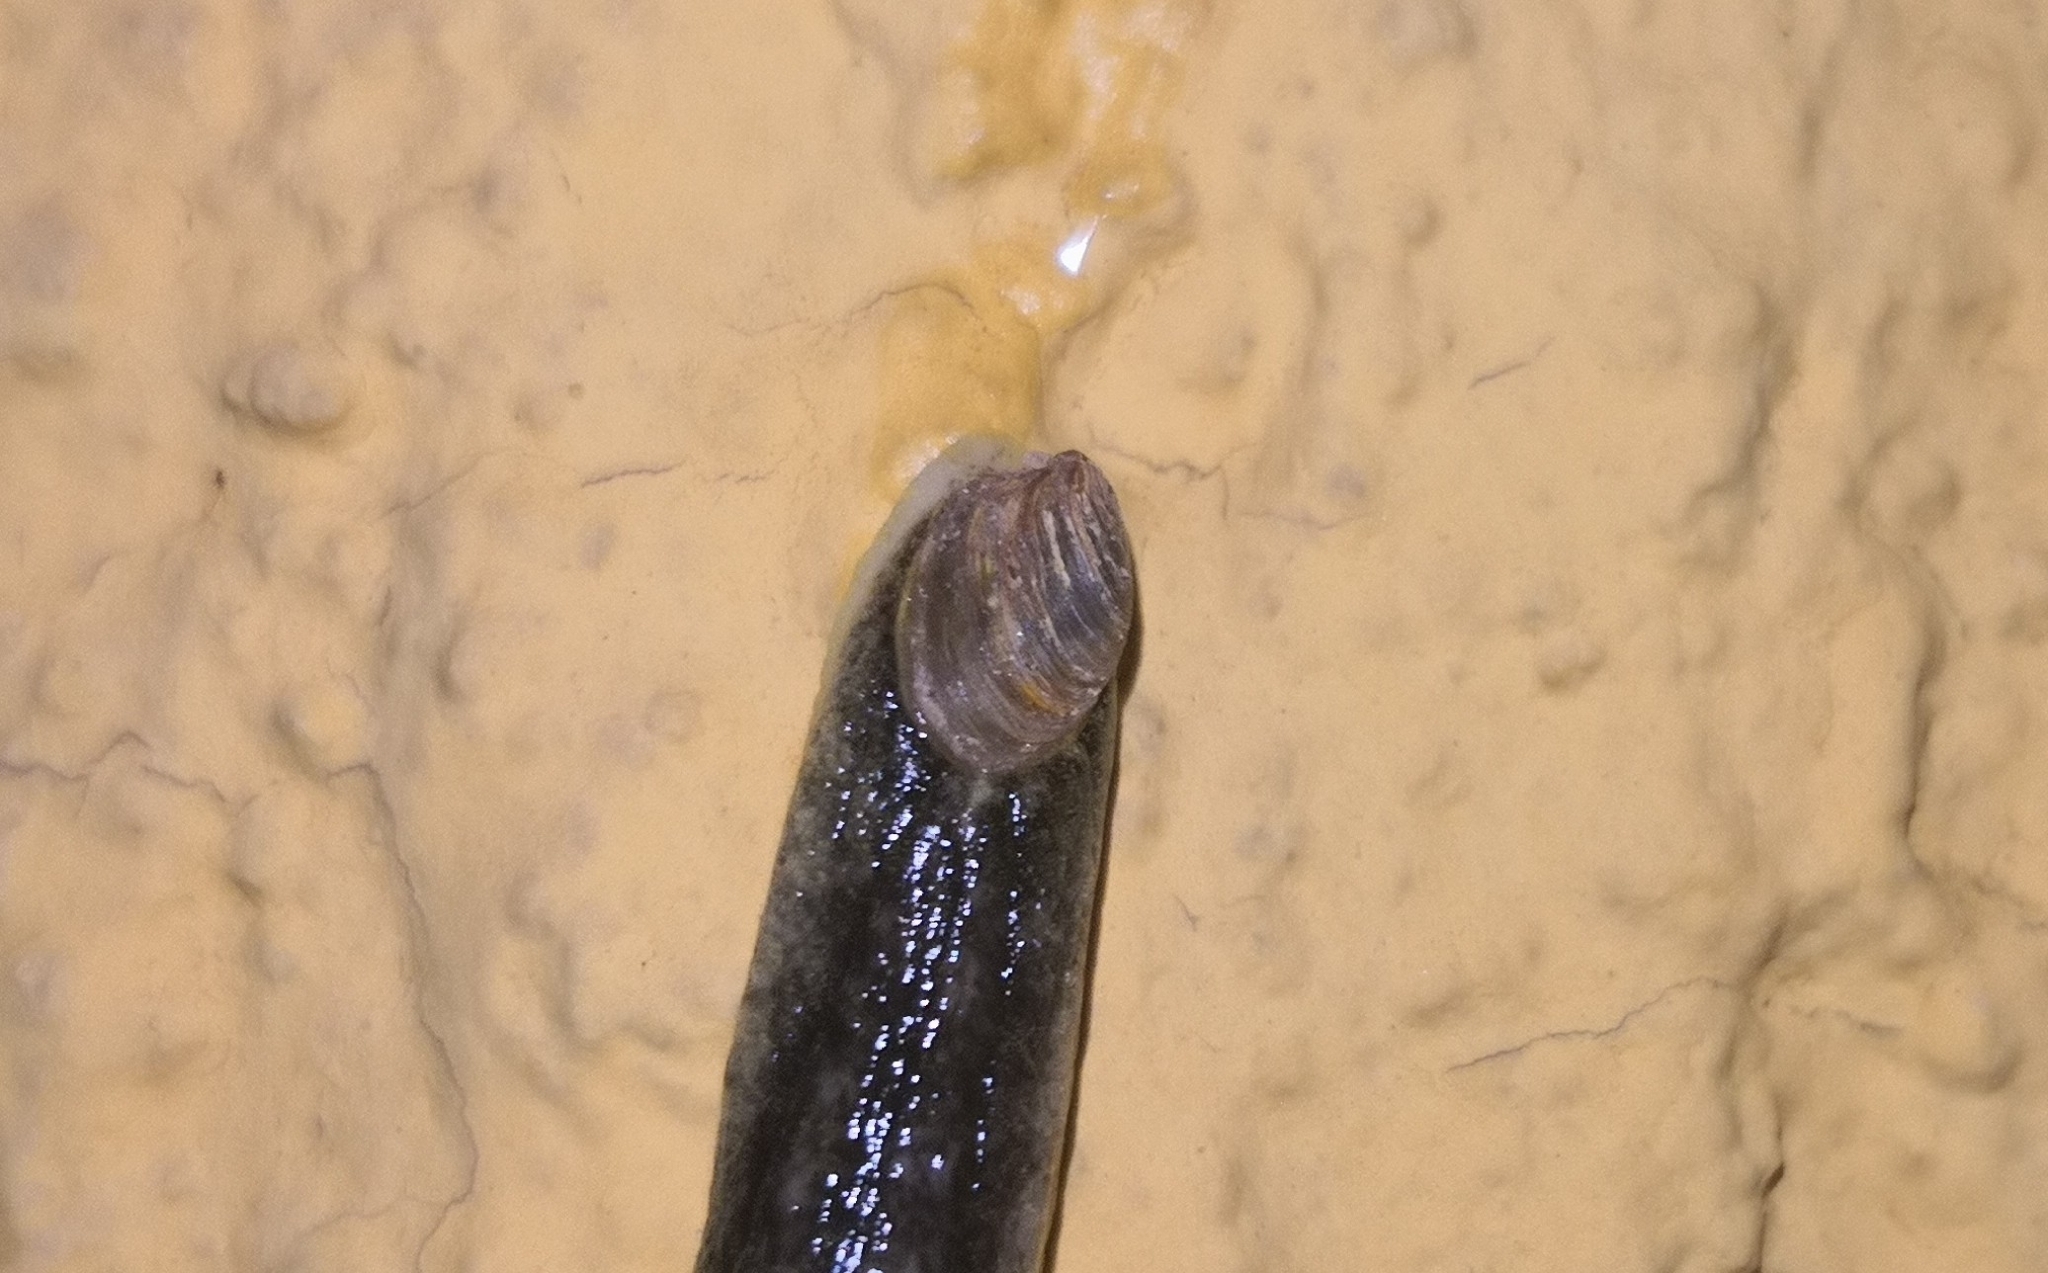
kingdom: Animalia
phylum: Mollusca
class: Gastropoda
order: Stylommatophora
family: Testacellidae
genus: Testacella
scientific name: Testacella haliotidea
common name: Shelled slug
